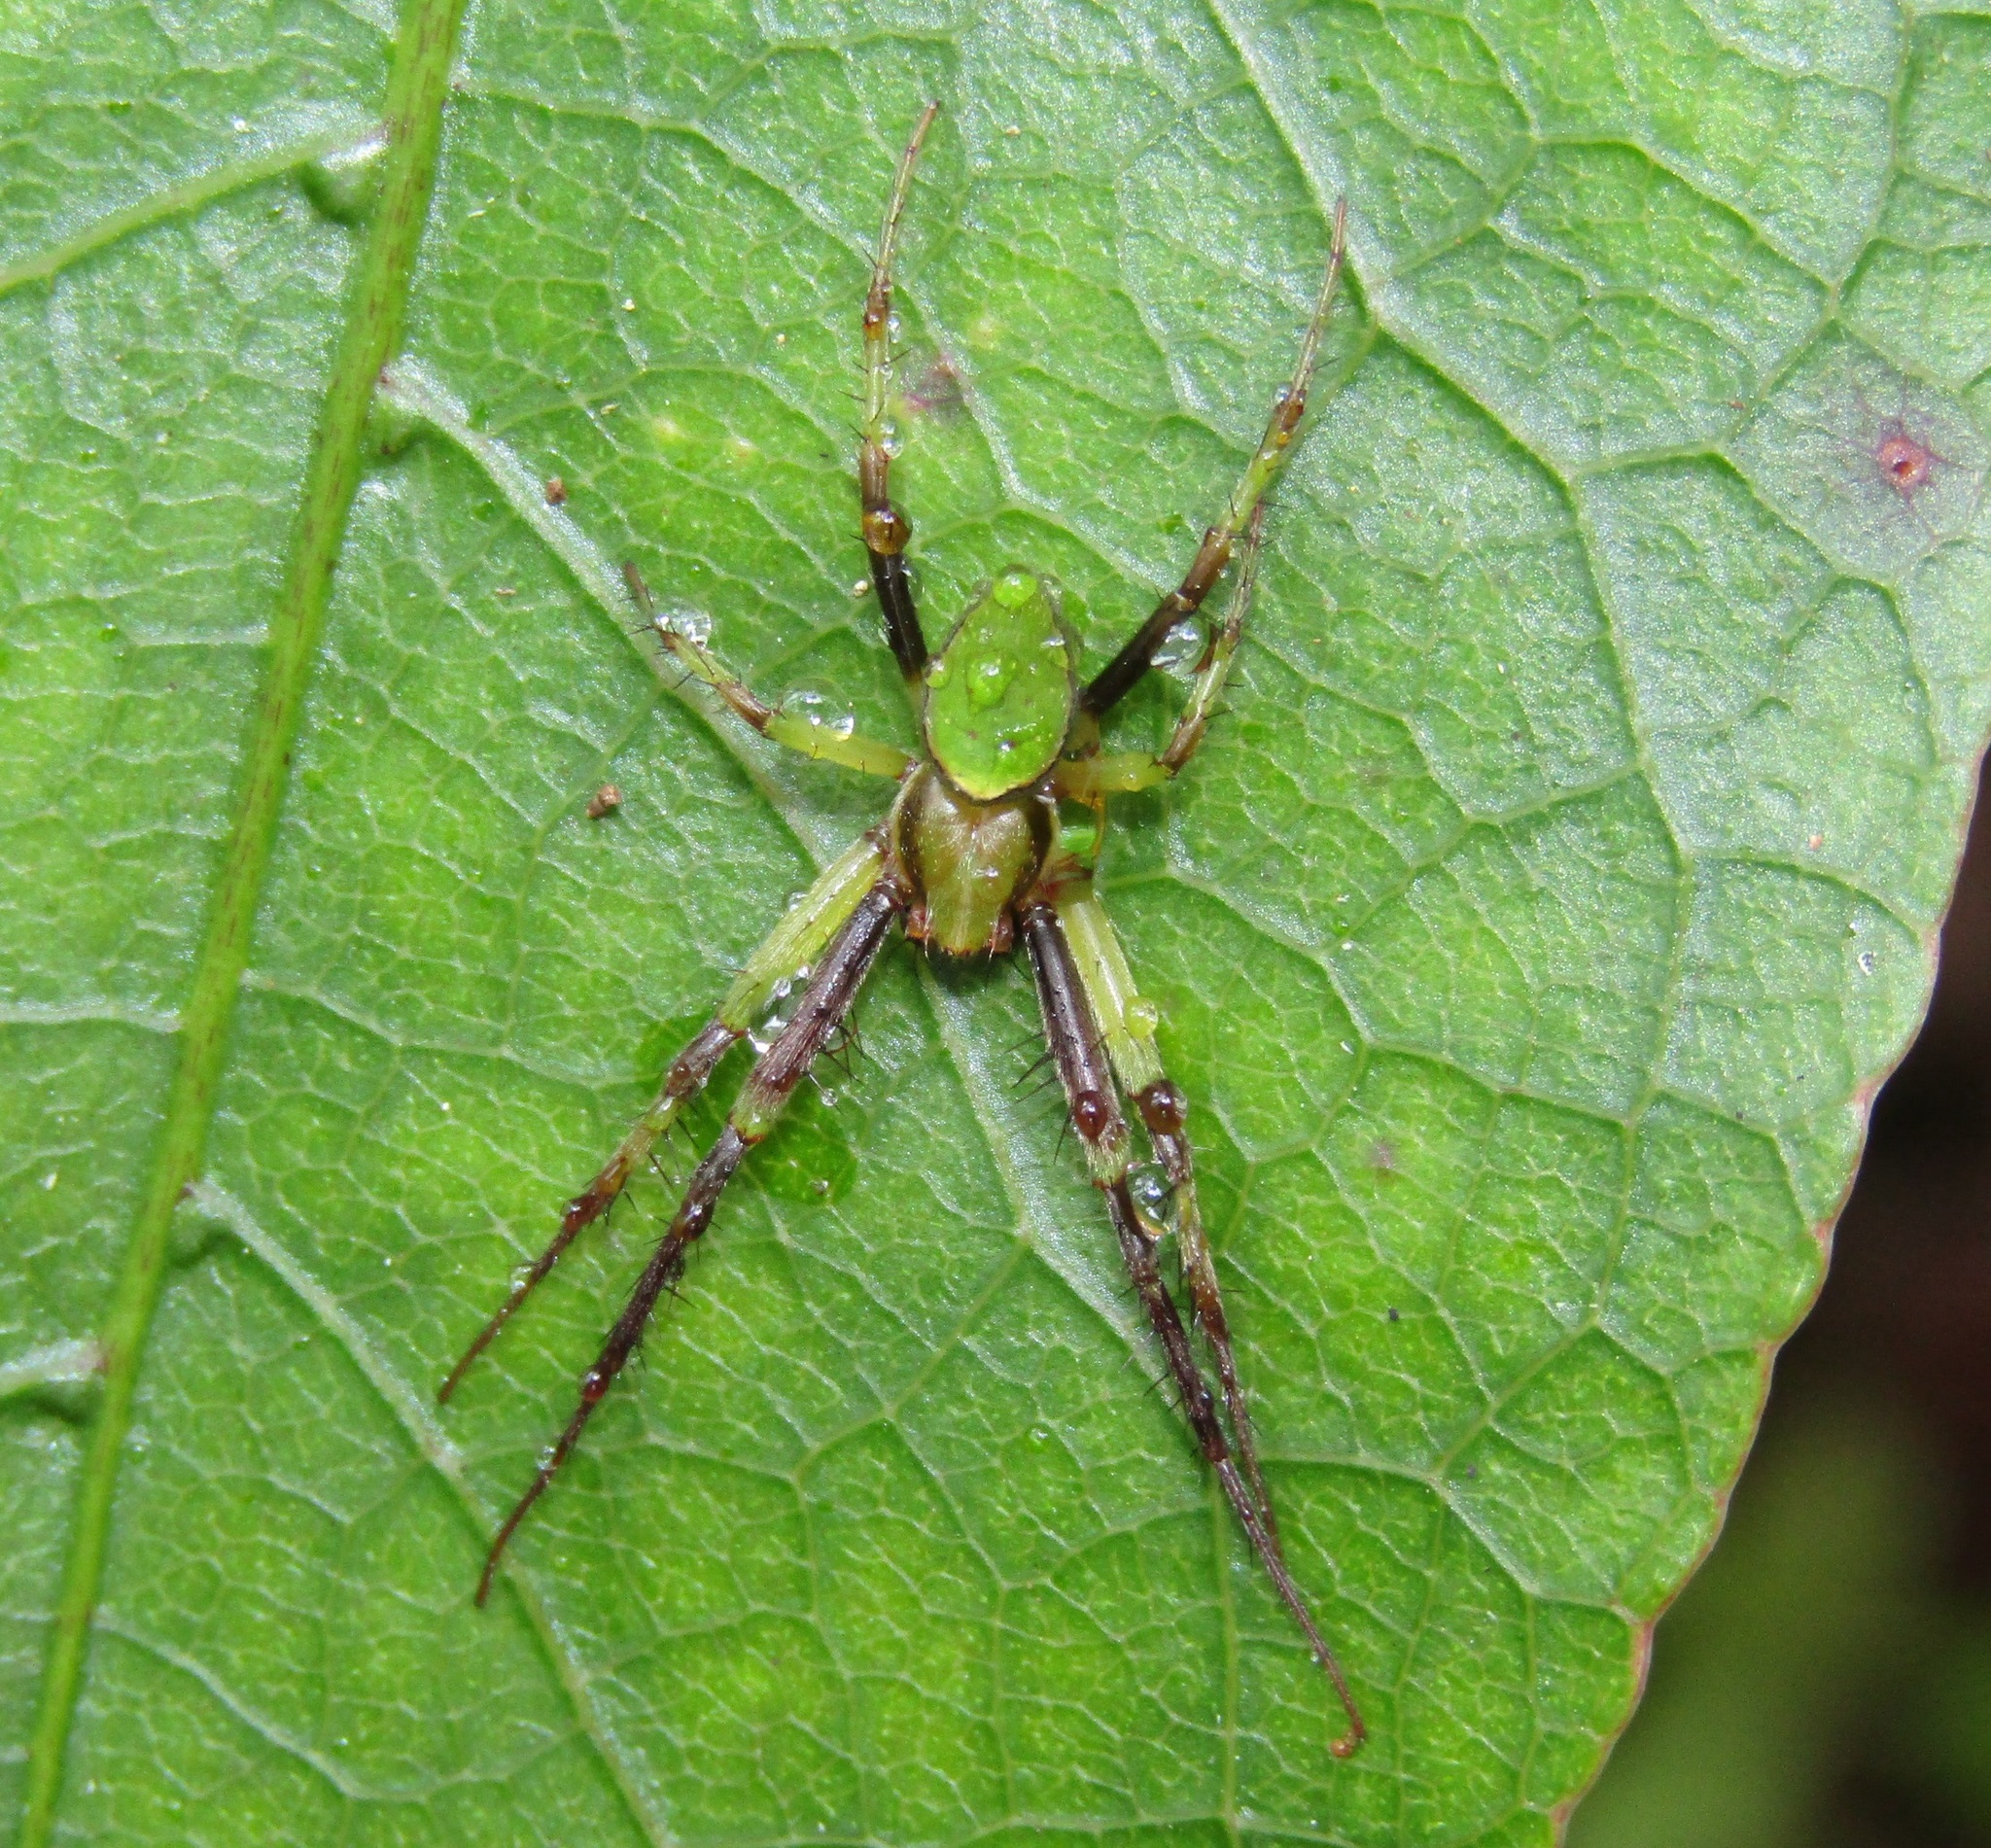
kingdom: Animalia
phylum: Arthropoda
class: Arachnida
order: Araneae
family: Araneidae
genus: Colaranea
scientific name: Colaranea viriditas
